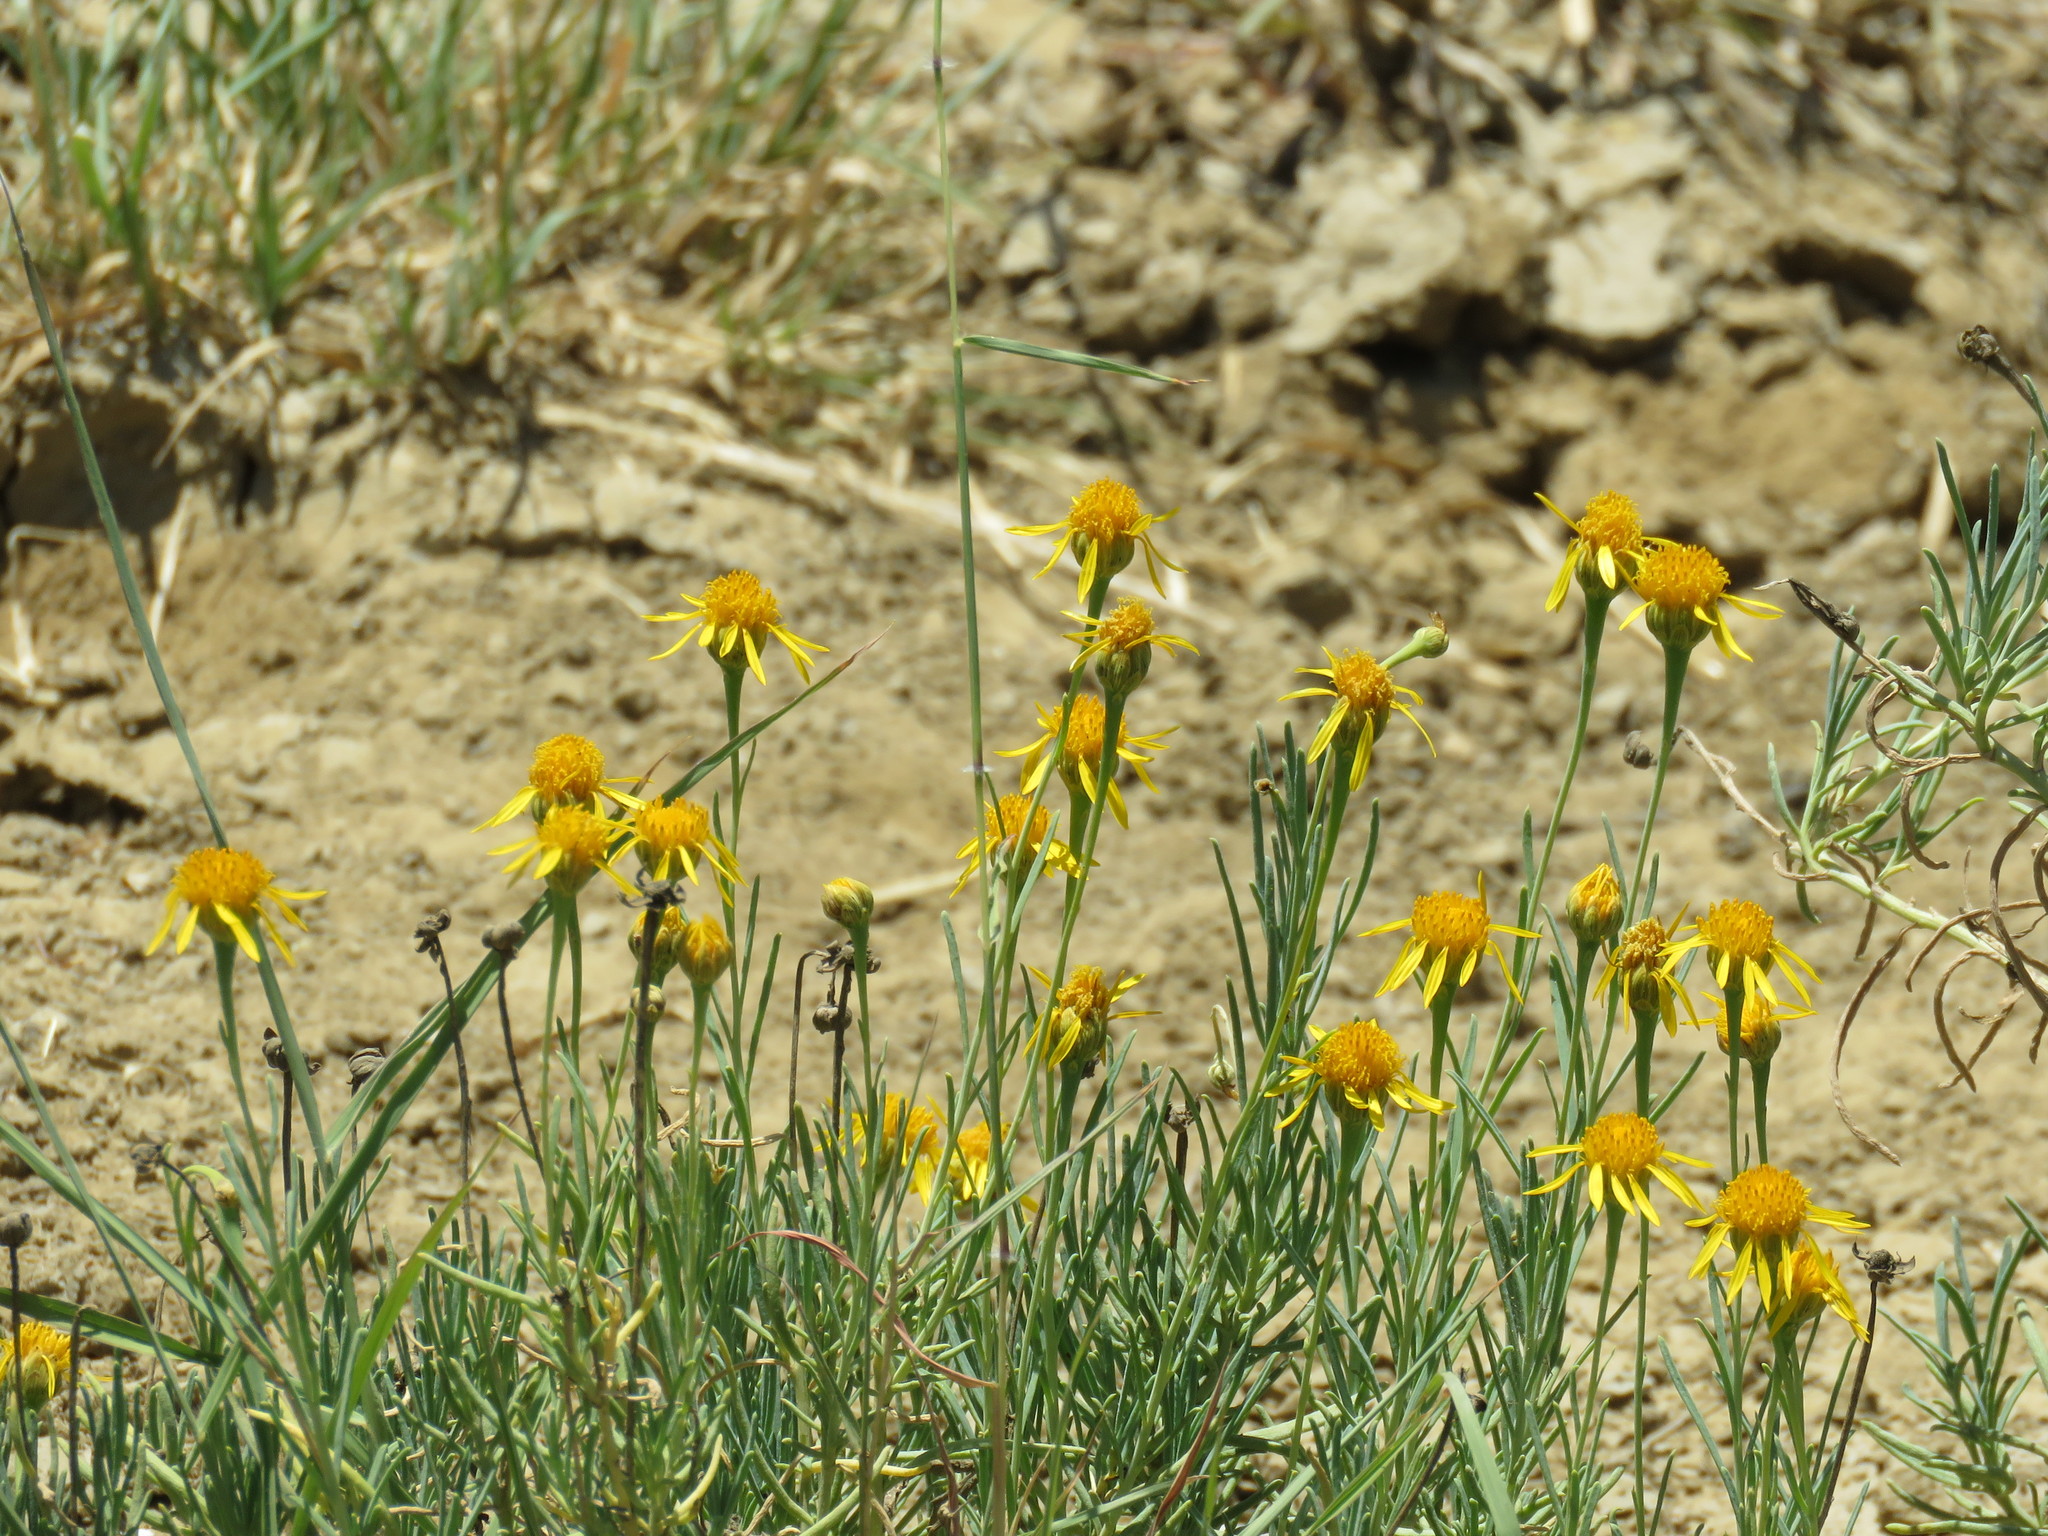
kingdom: Plantae
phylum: Tracheophyta
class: Magnoliopsida
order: Asterales
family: Asteraceae
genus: Clappia
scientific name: Clappia suaedifolia
